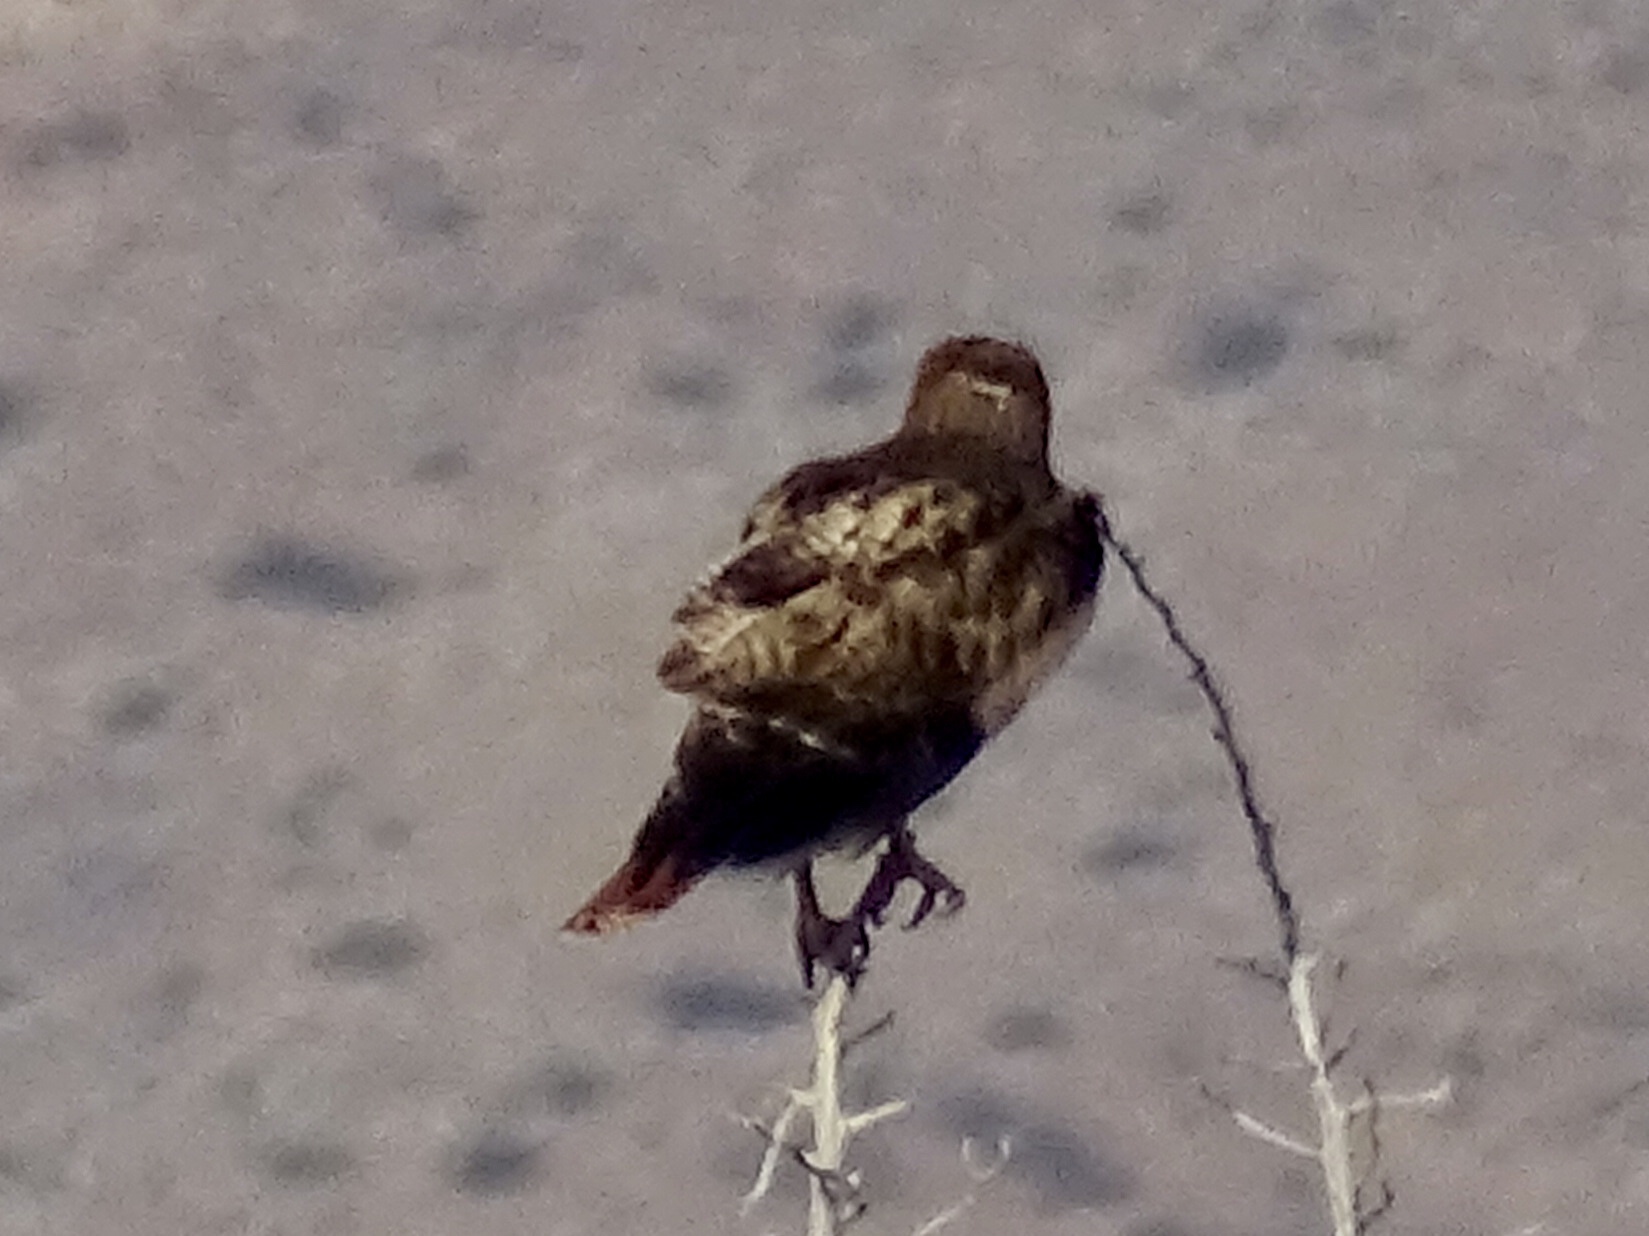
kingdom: Animalia
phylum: Chordata
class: Aves
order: Accipitriformes
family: Accipitridae
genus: Buteo
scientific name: Buteo jamaicensis
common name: Red-tailed hawk
